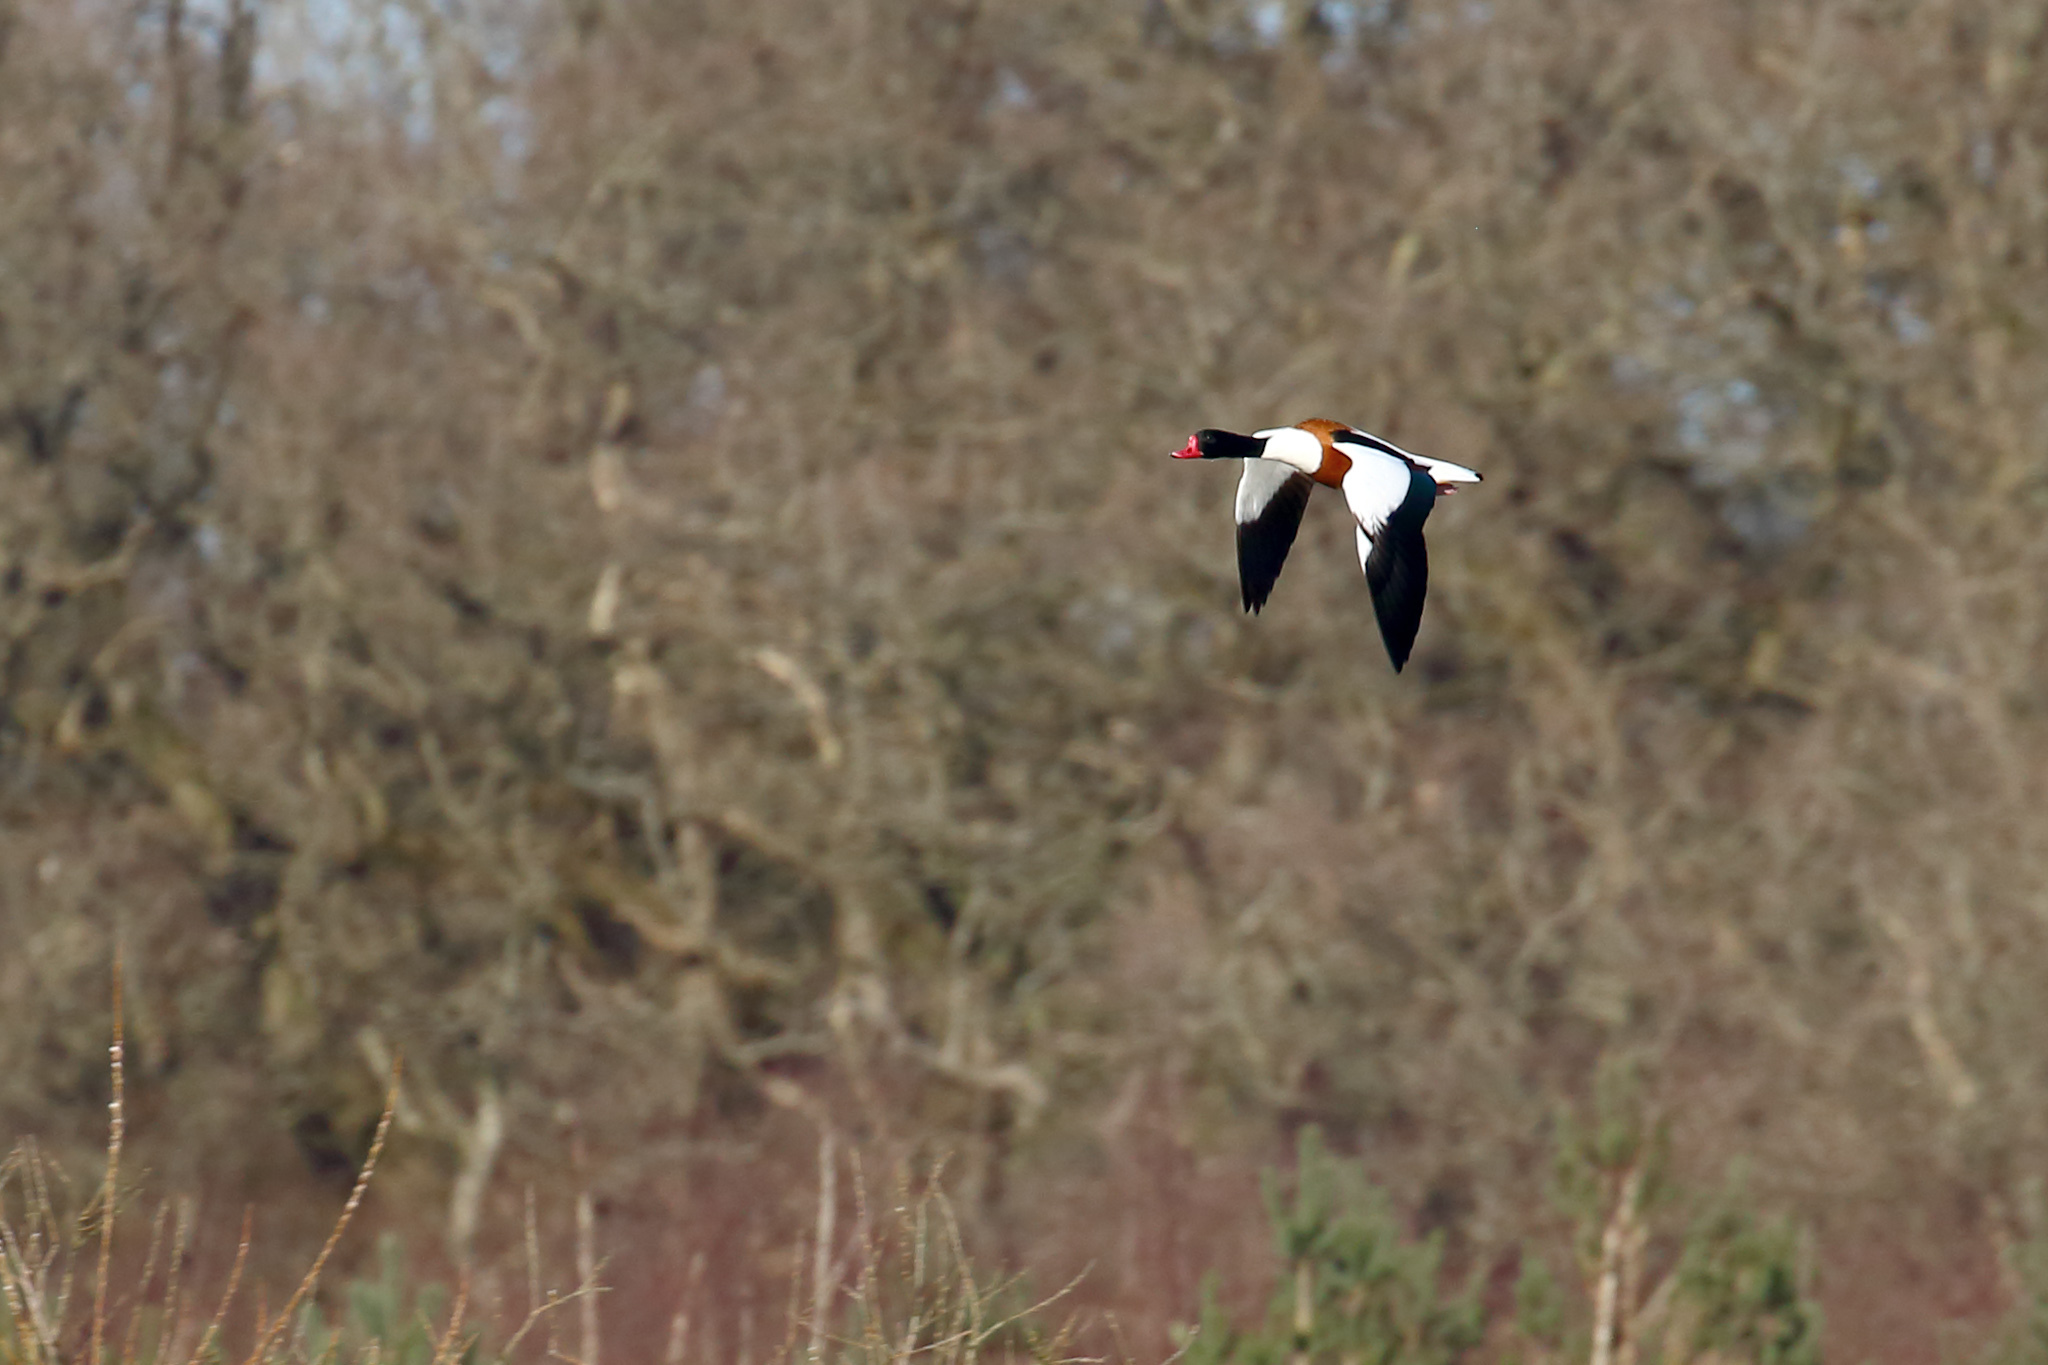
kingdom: Animalia
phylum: Chordata
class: Aves
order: Anseriformes
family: Anatidae
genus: Tadorna
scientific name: Tadorna tadorna
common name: Common shelduck
